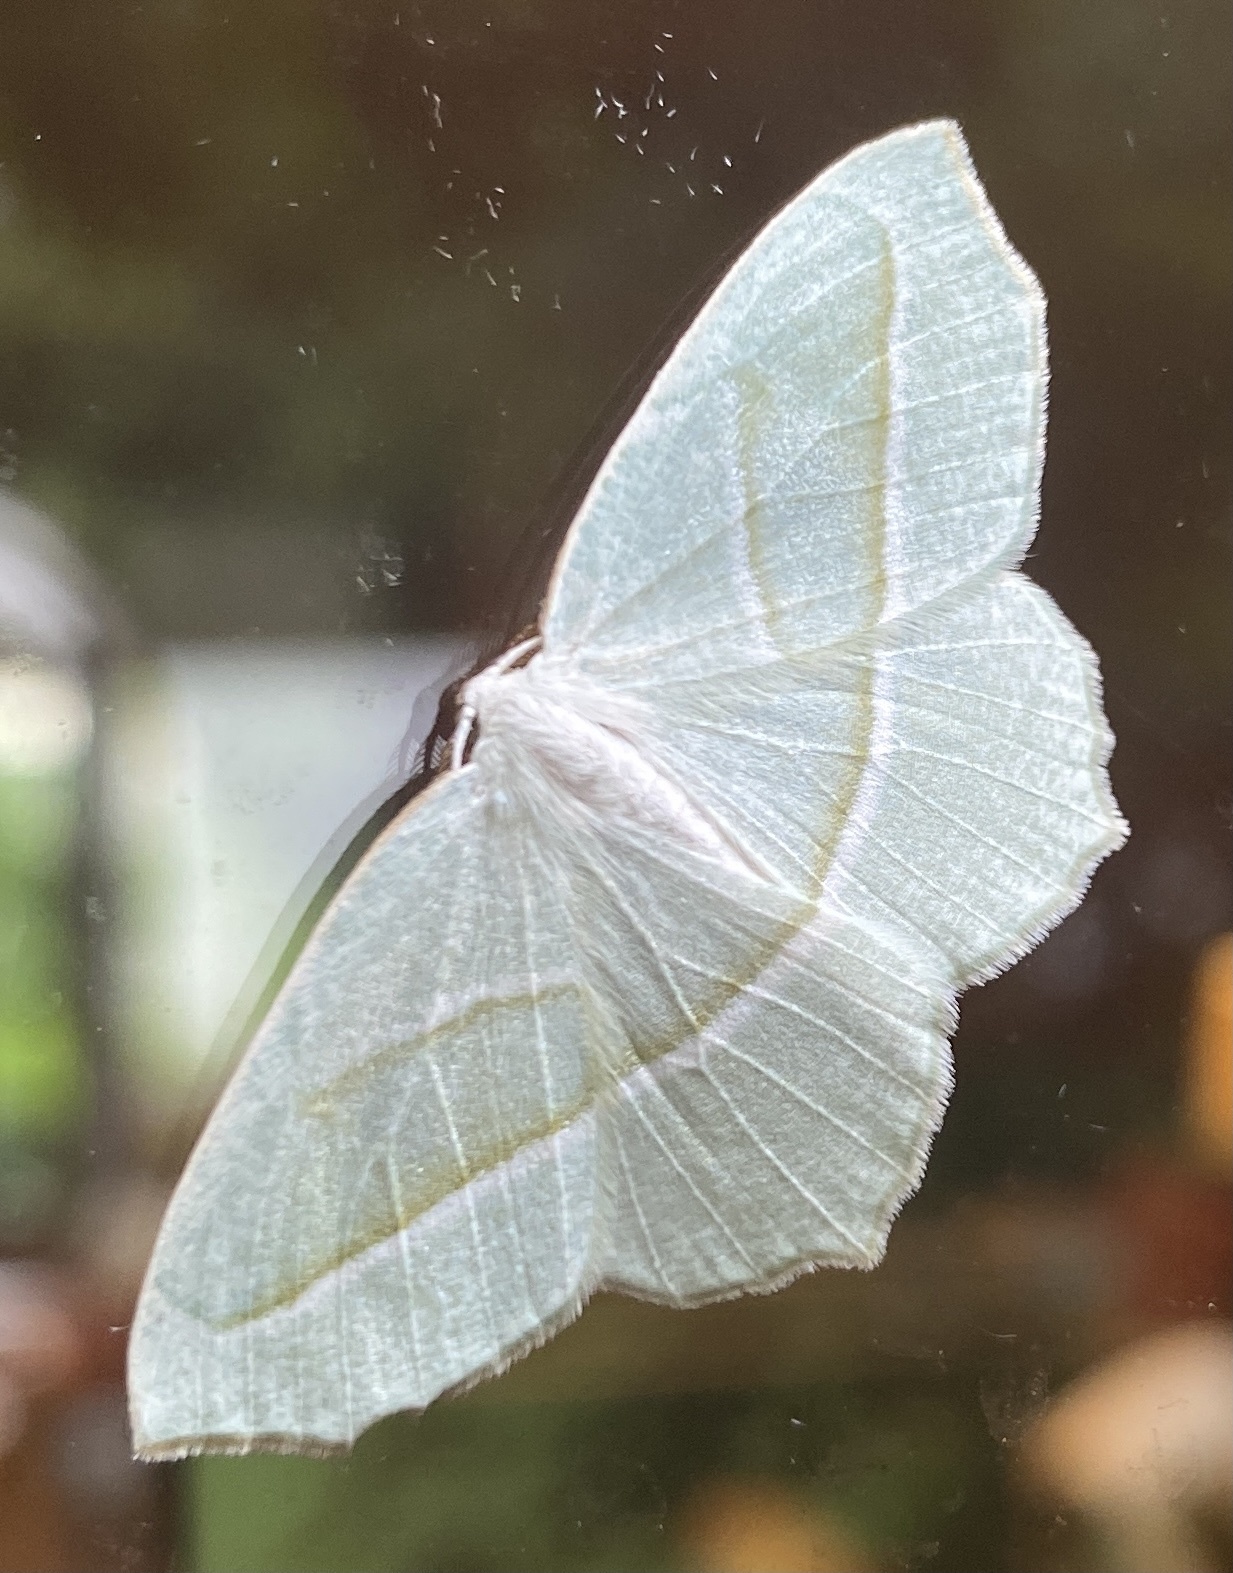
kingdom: Animalia
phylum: Arthropoda
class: Insecta
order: Lepidoptera
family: Geometridae
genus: Campaea
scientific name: Campaea perlata
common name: Fringed looper
